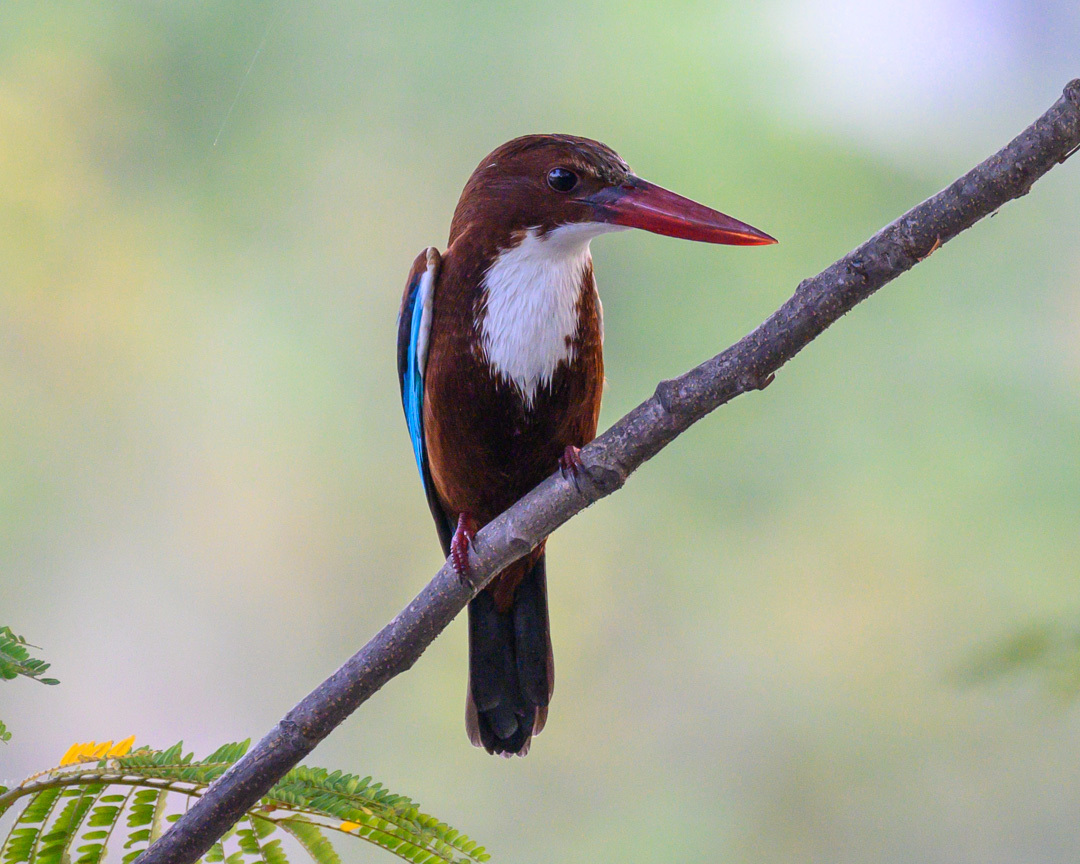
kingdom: Animalia
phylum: Chordata
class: Aves
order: Coraciiformes
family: Alcedinidae
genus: Halcyon
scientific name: Halcyon smyrnensis
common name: White-throated kingfisher
